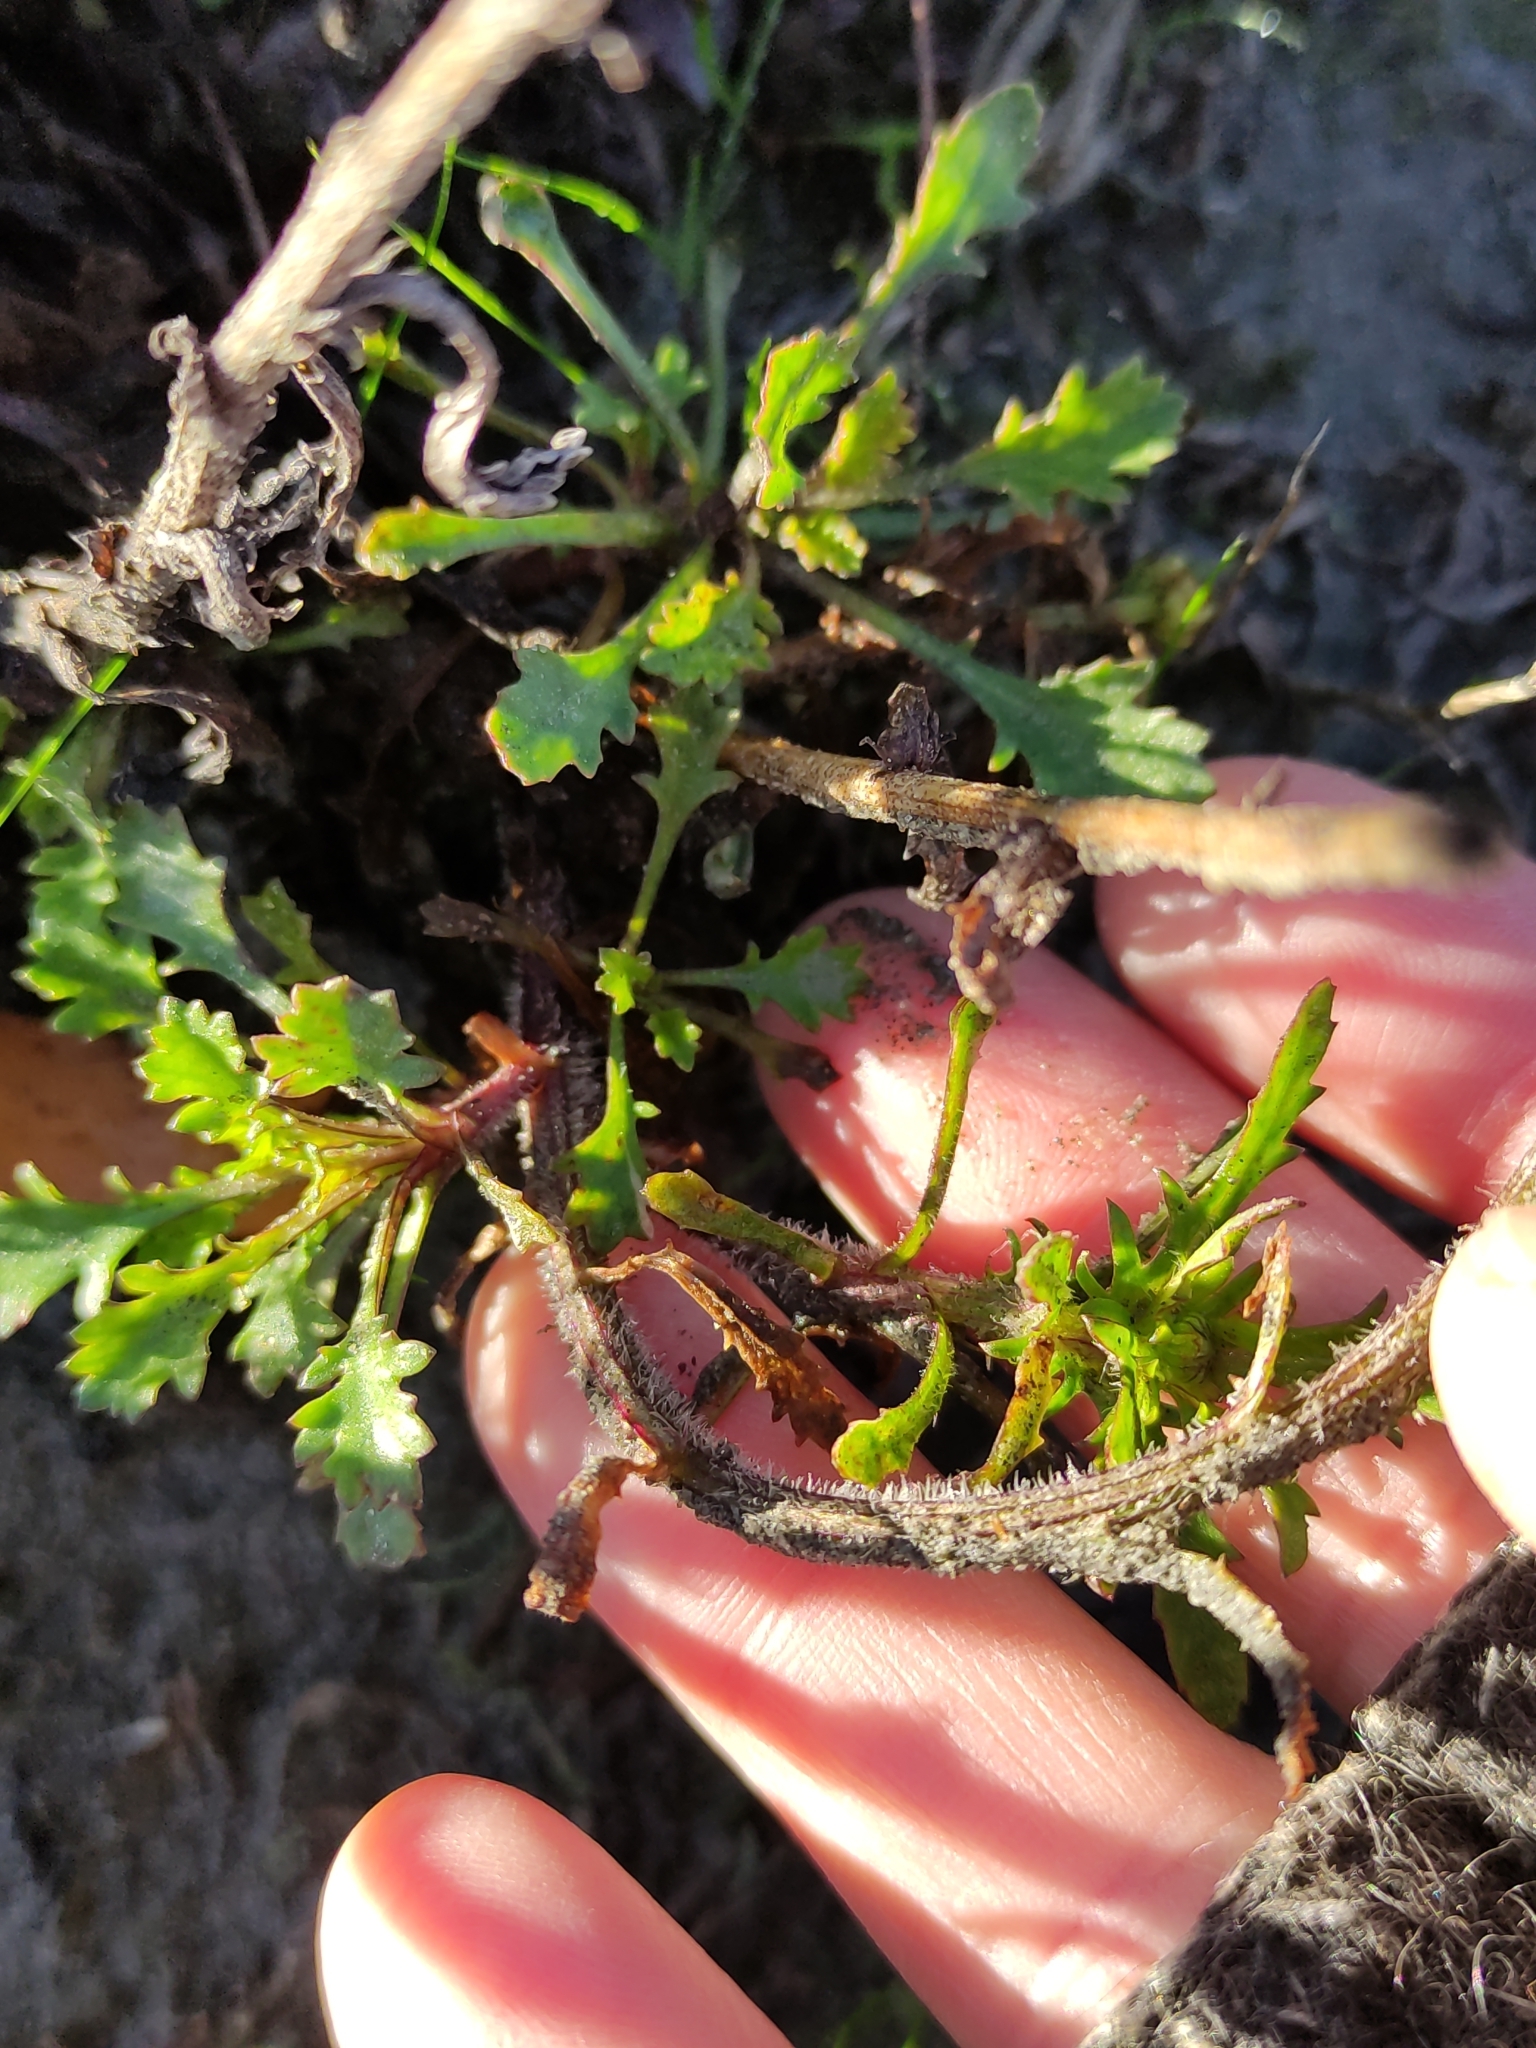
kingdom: Plantae
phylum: Tracheophyta
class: Magnoliopsida
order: Asterales
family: Asteraceae
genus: Leucanthemum
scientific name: Leucanthemum vulgare
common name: Oxeye daisy
